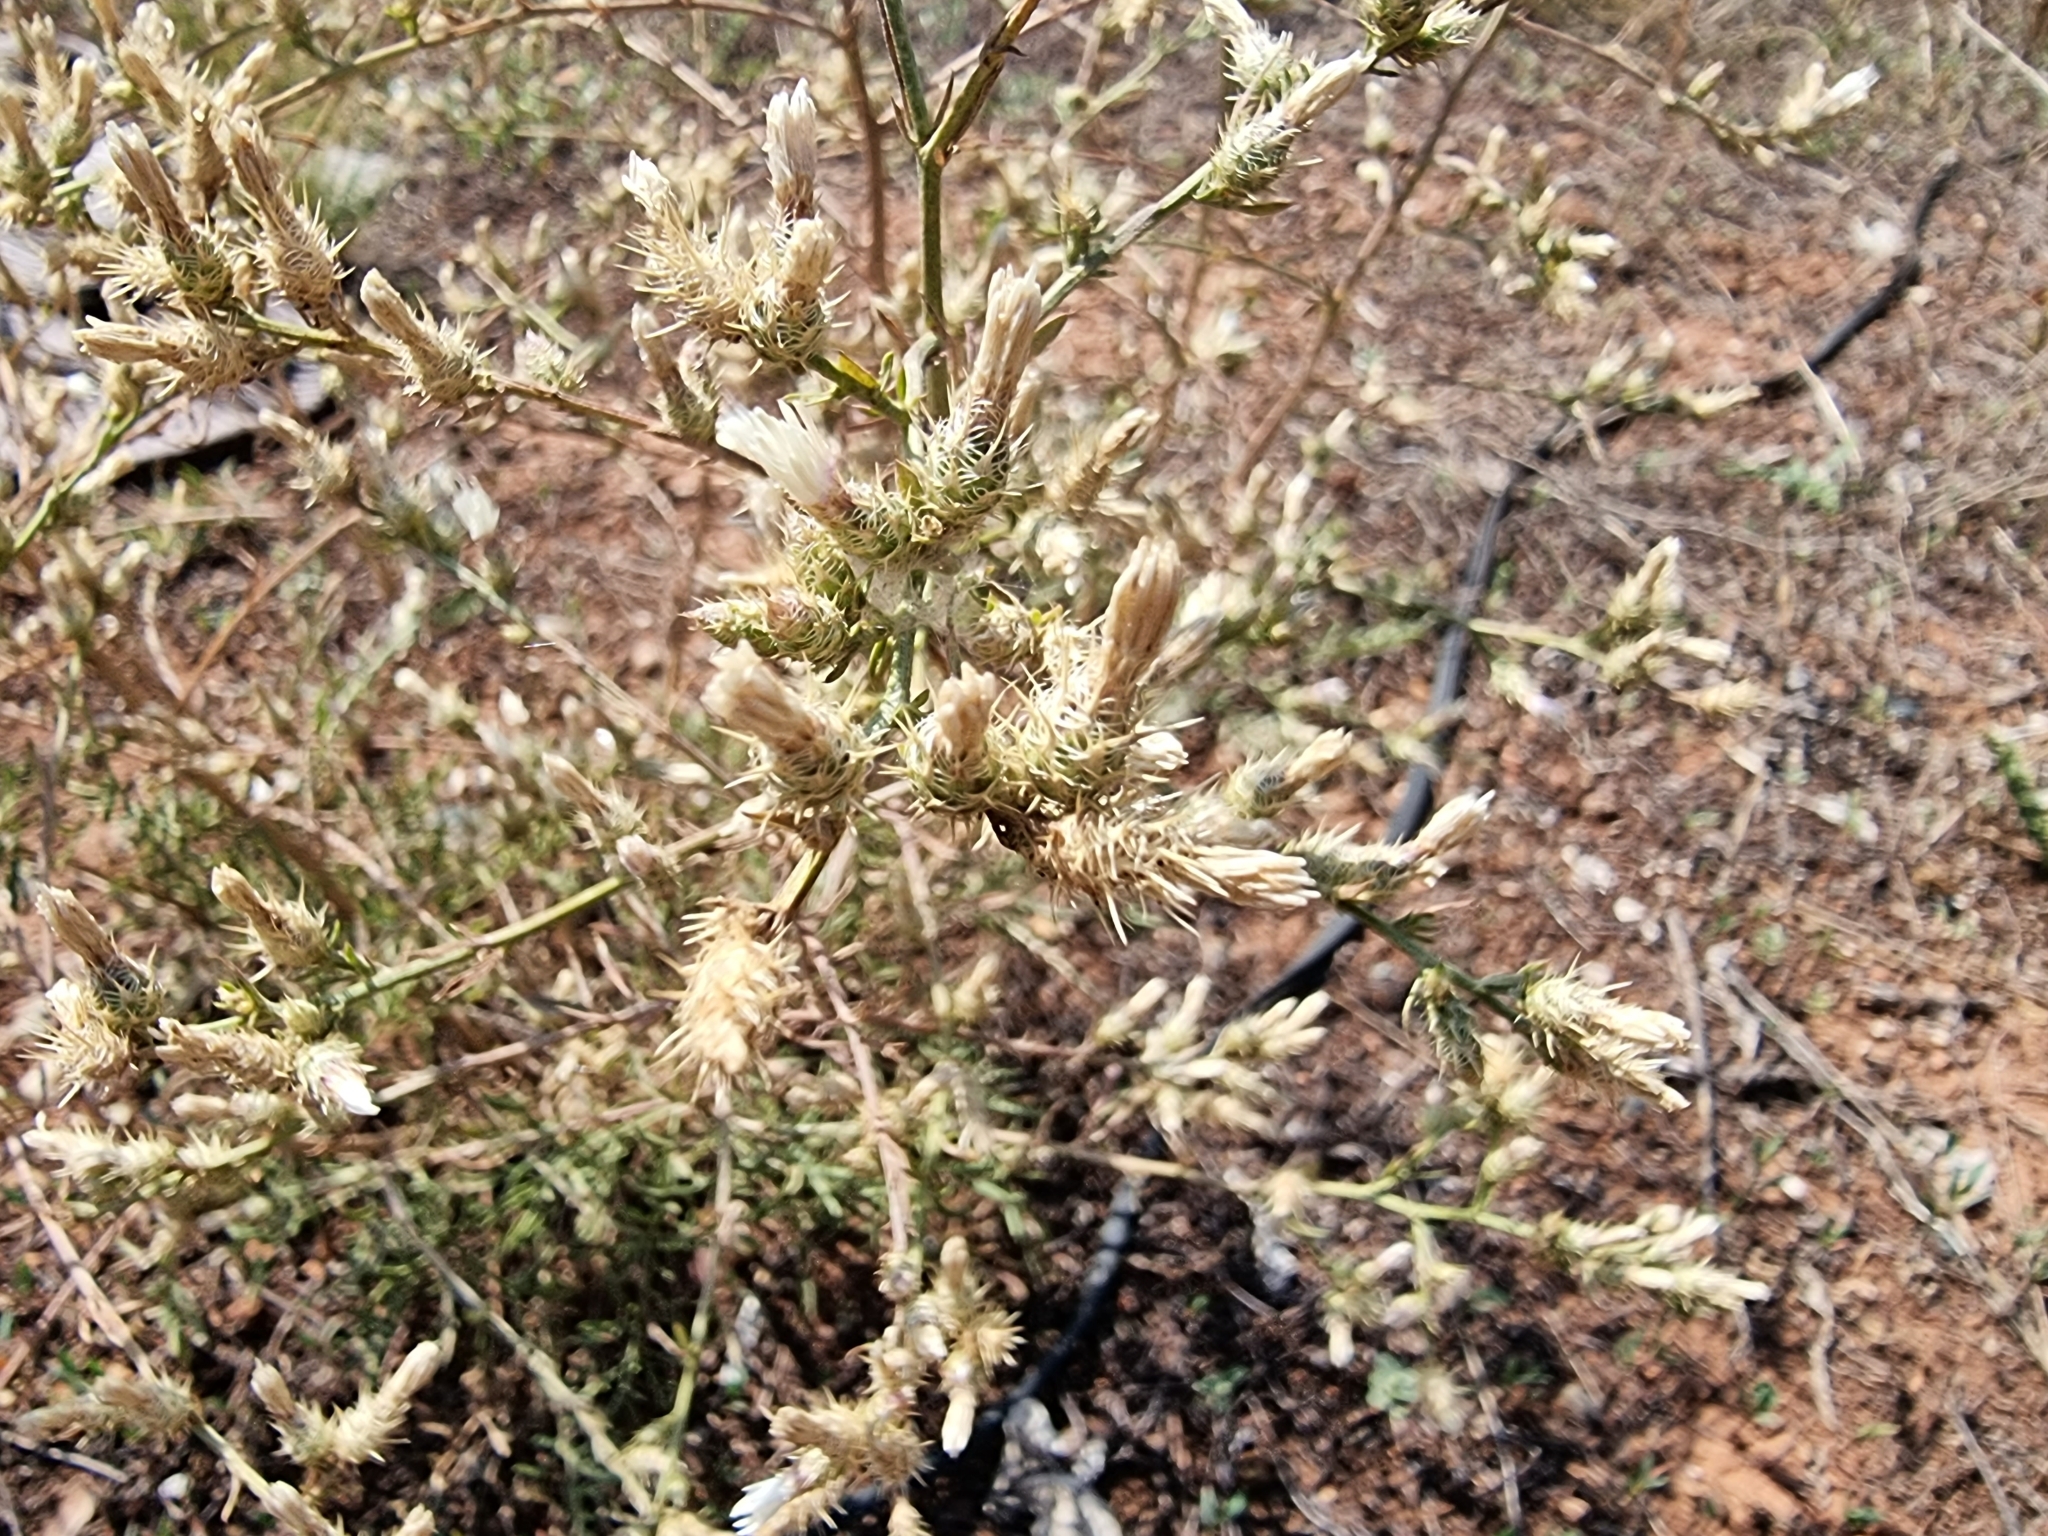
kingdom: Plantae
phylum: Tracheophyta
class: Magnoliopsida
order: Asterales
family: Asteraceae
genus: Centaurea
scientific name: Centaurea diffusa
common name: Diffuse knapweed
